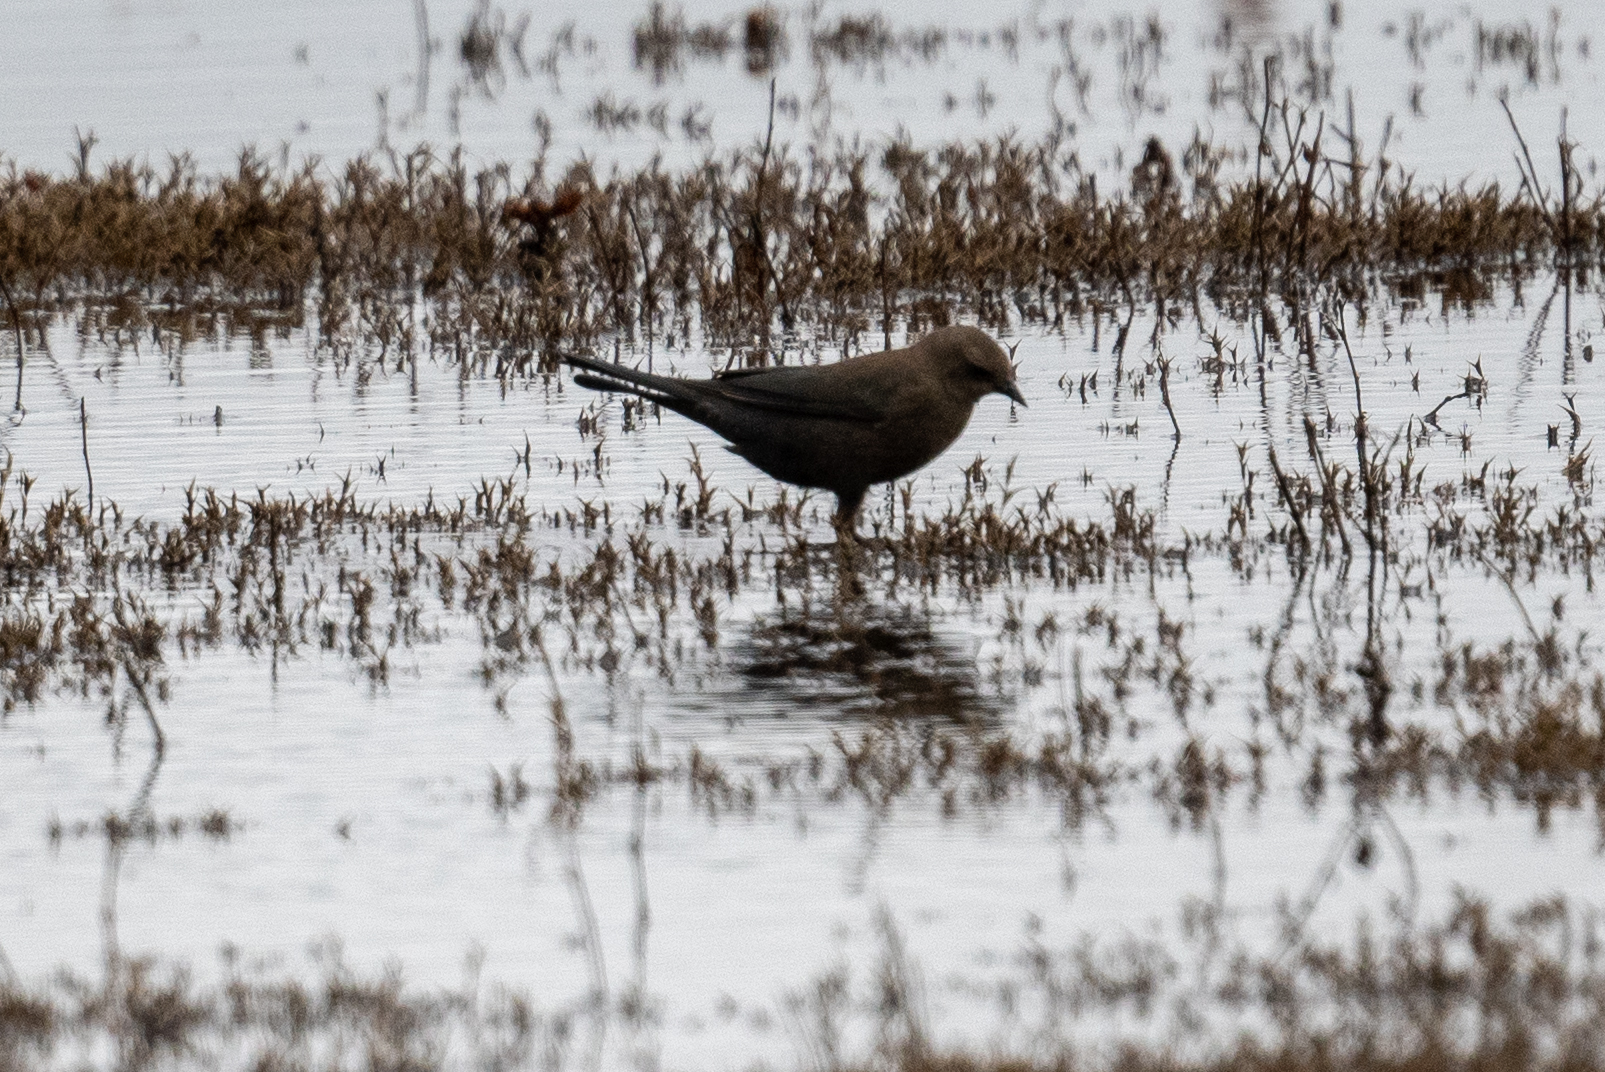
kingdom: Animalia
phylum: Chordata
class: Aves
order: Passeriformes
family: Icteridae
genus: Euphagus
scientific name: Euphagus cyanocephalus
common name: Brewer's blackbird
